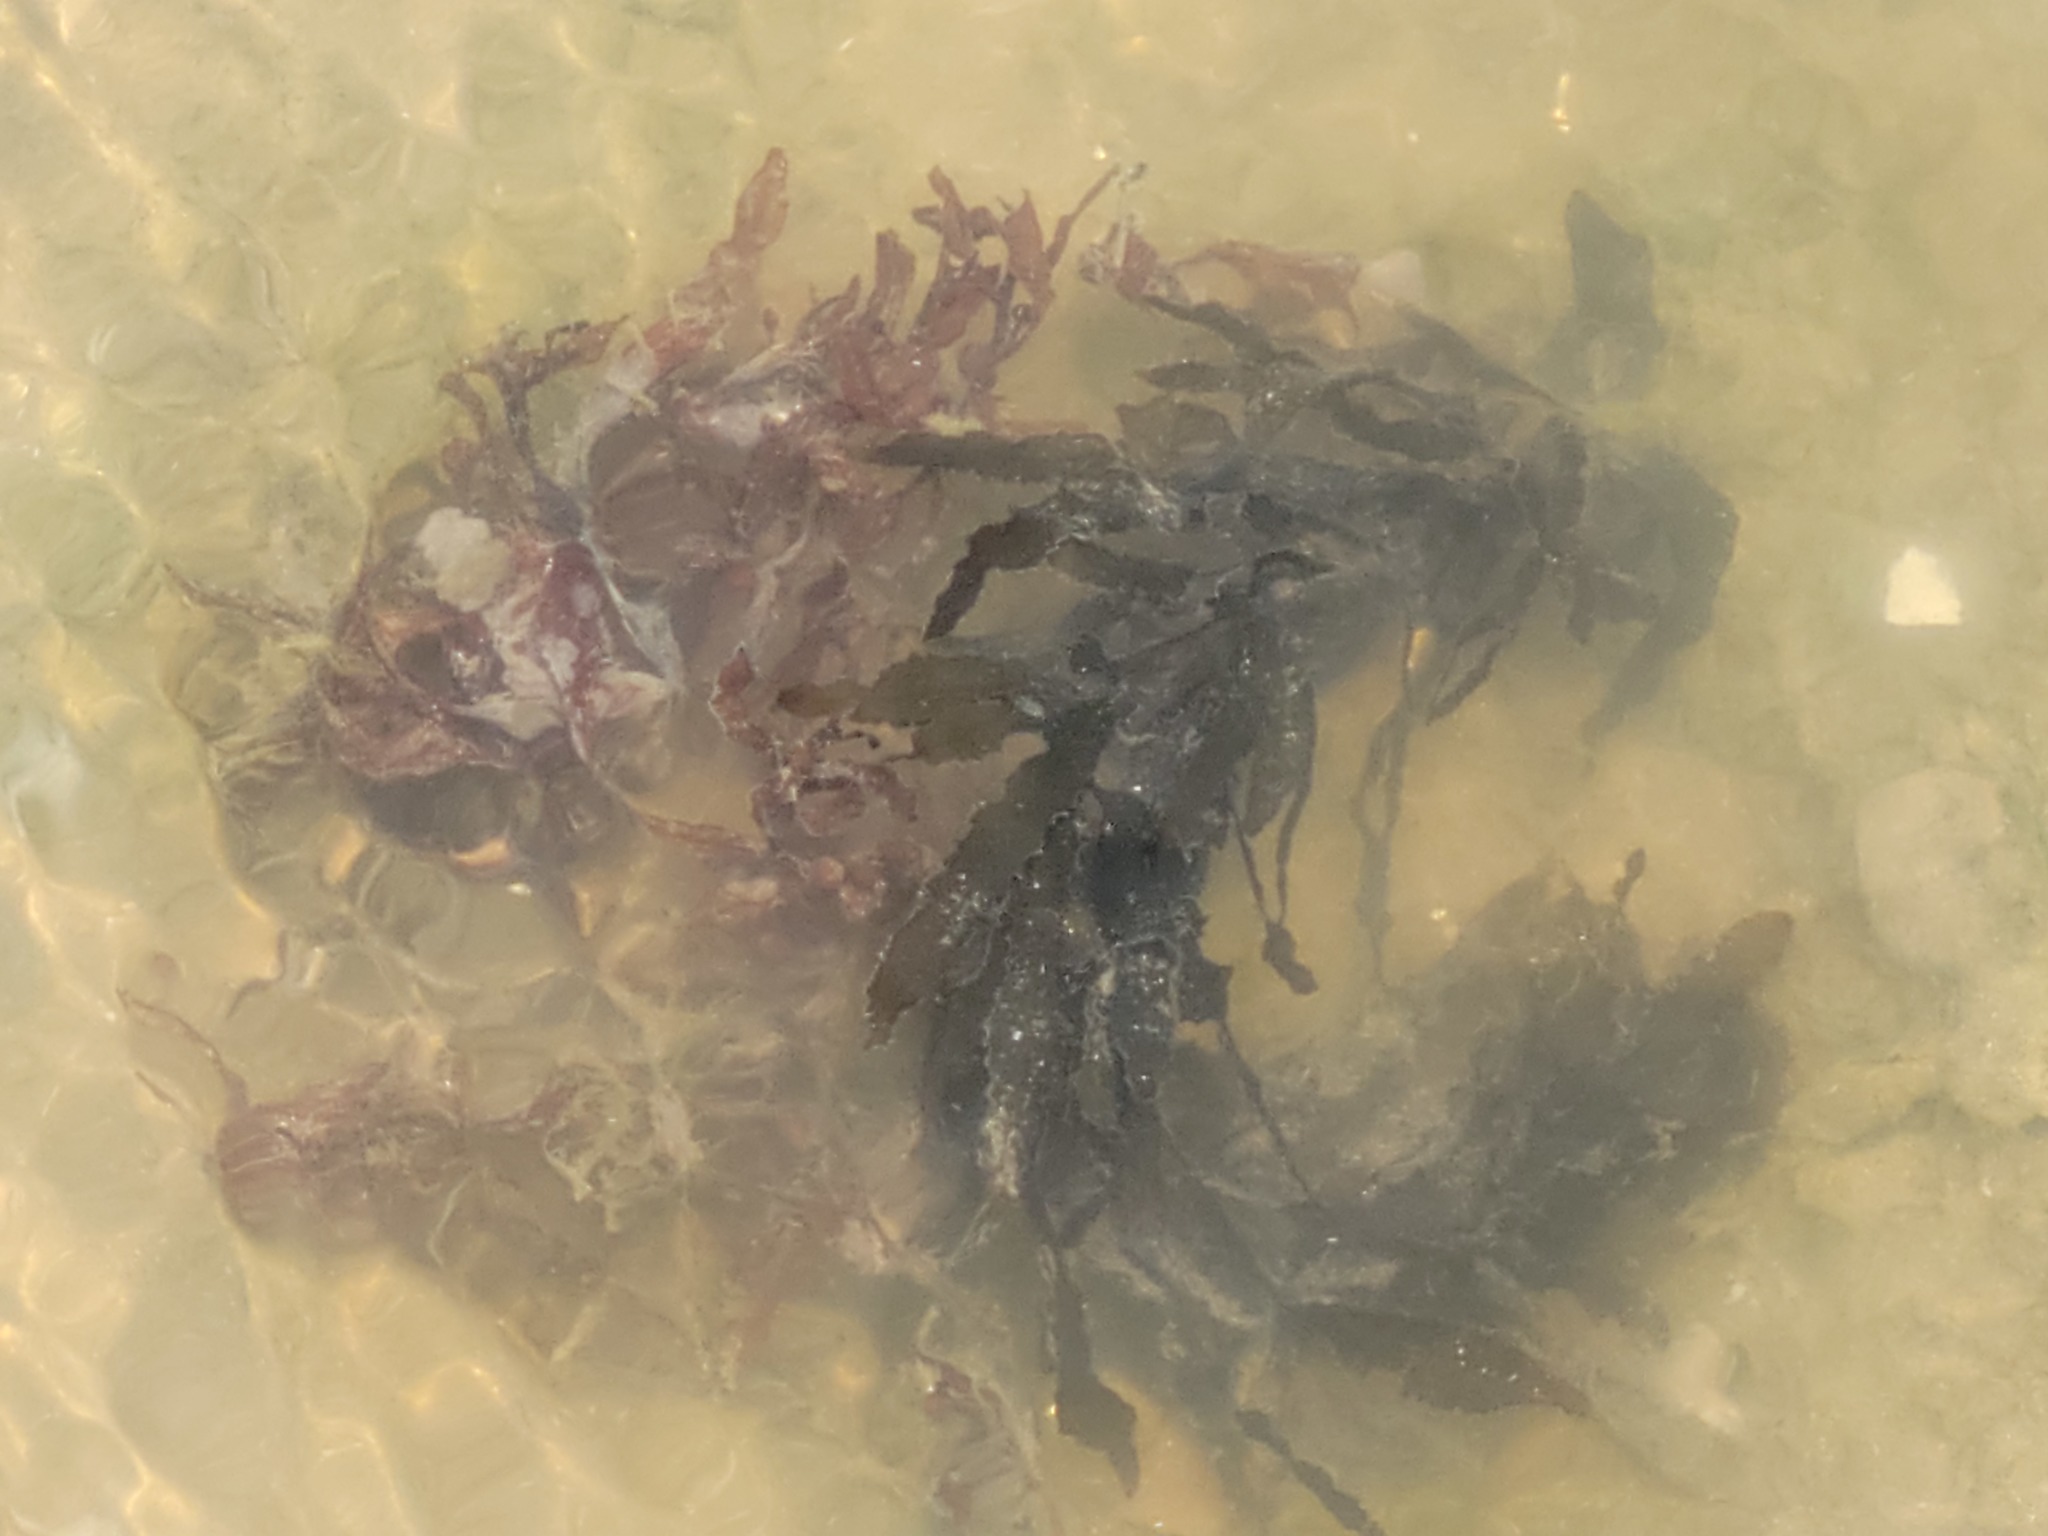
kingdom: Chromista
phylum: Ochrophyta
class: Phaeophyceae
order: Fucales
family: Sargassaceae
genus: Sargassum
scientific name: Sargassum fluitans
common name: Sargassum seaweed
